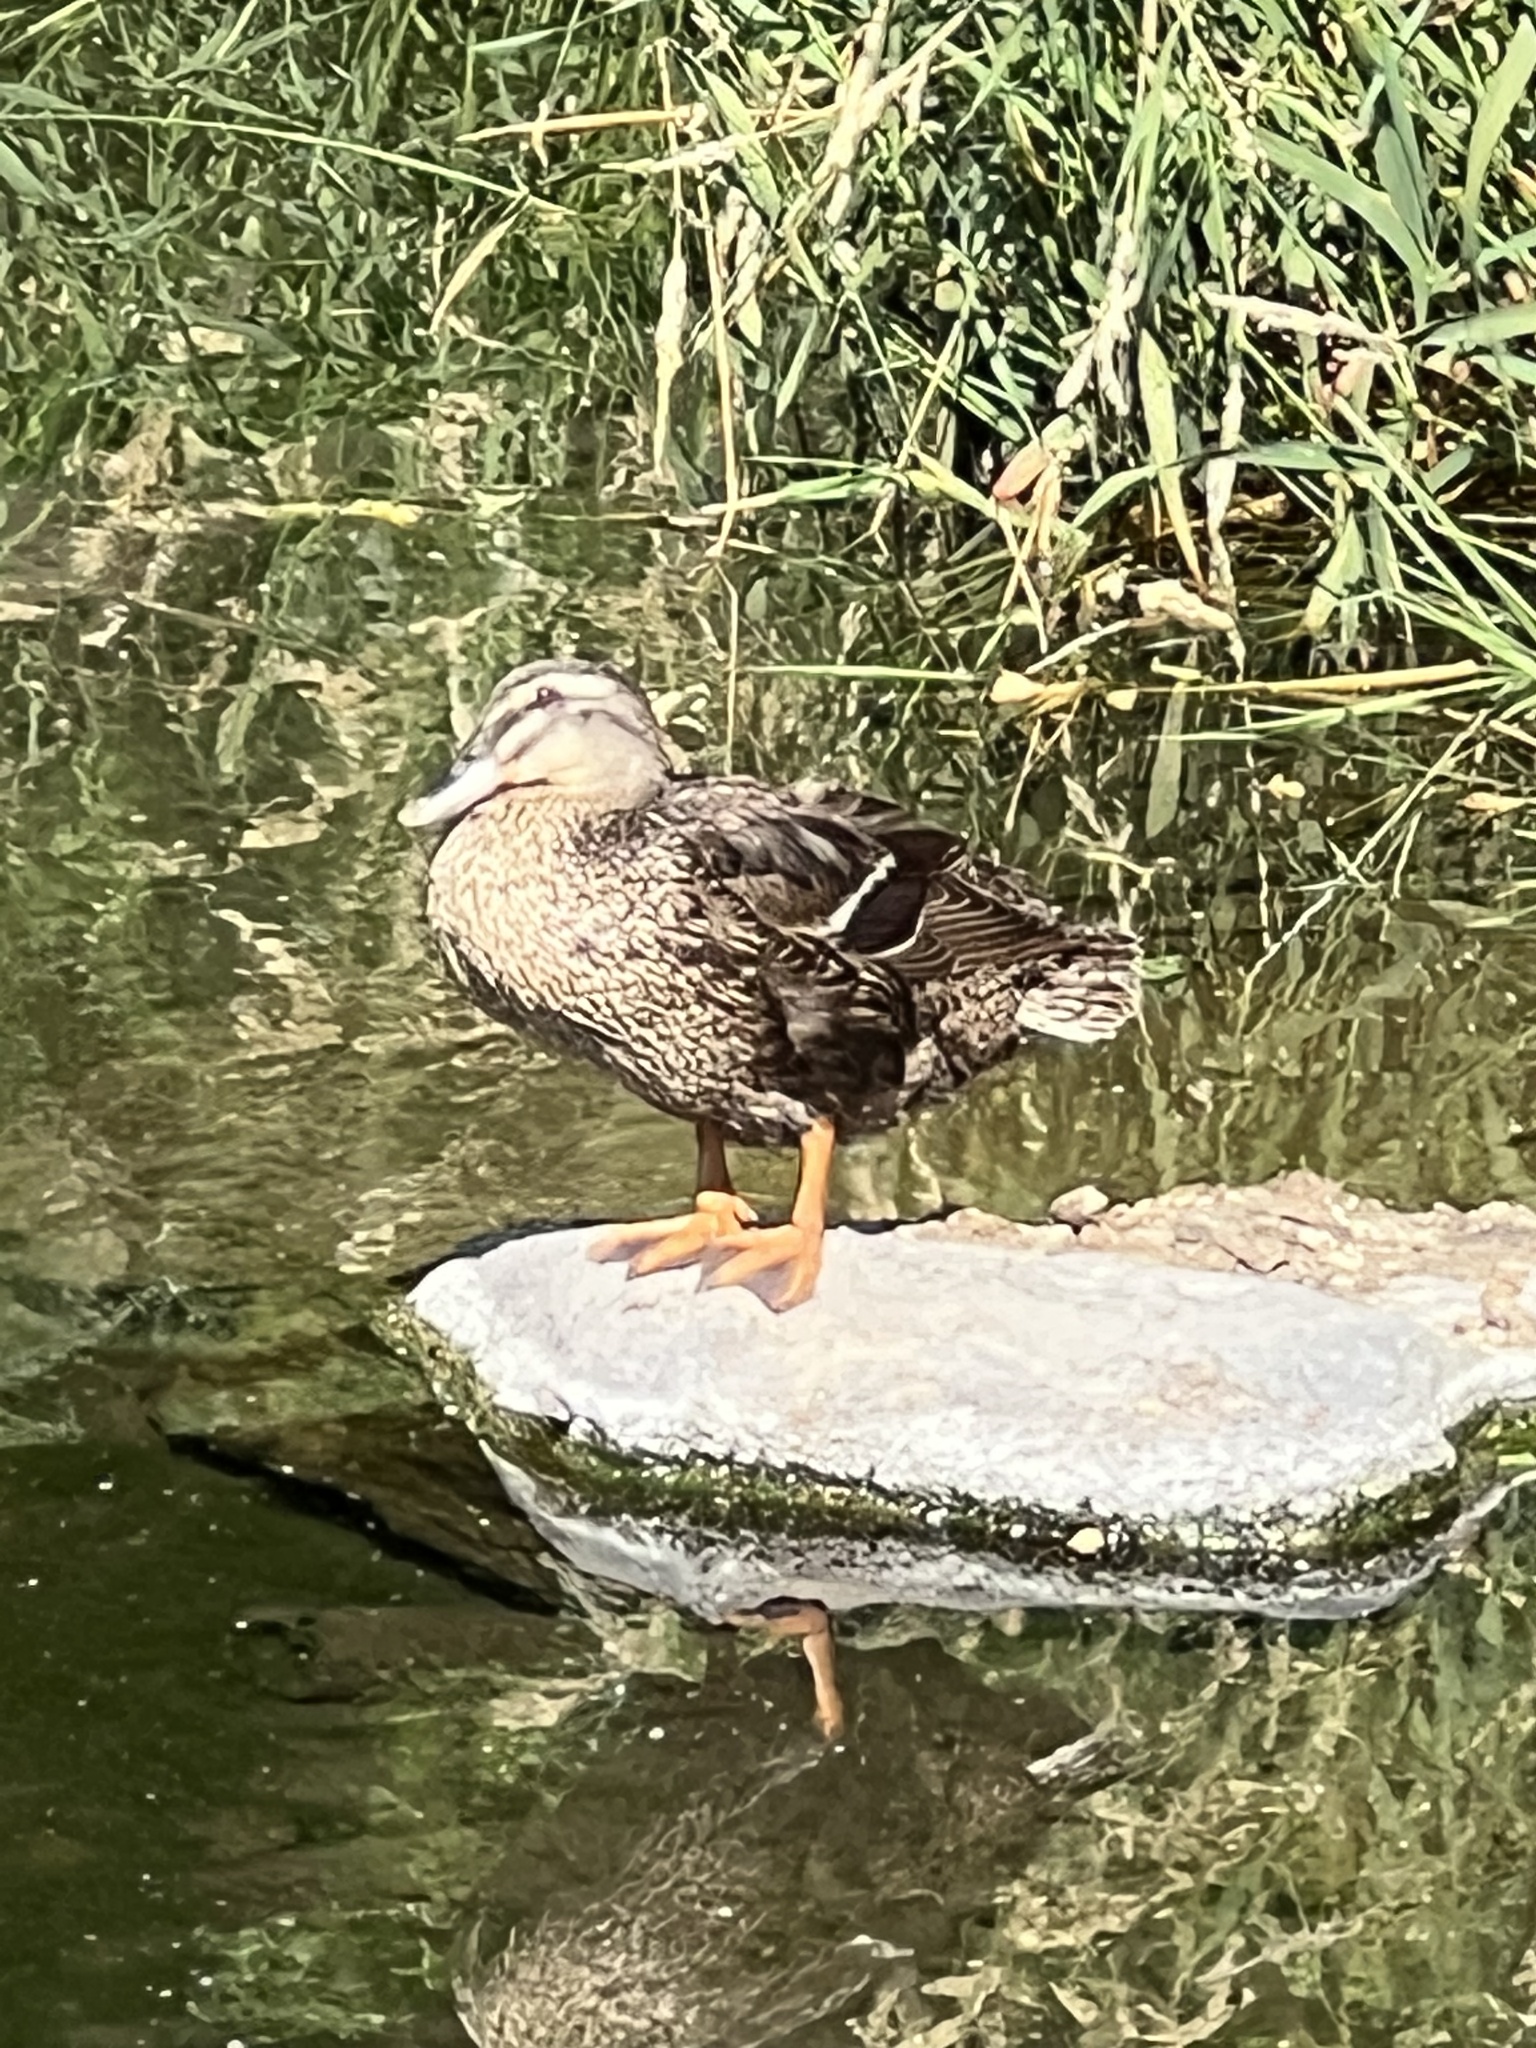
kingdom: Animalia
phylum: Chordata
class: Aves
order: Anseriformes
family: Anatidae
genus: Anas
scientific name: Anas platyrhynchos
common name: Mallard
